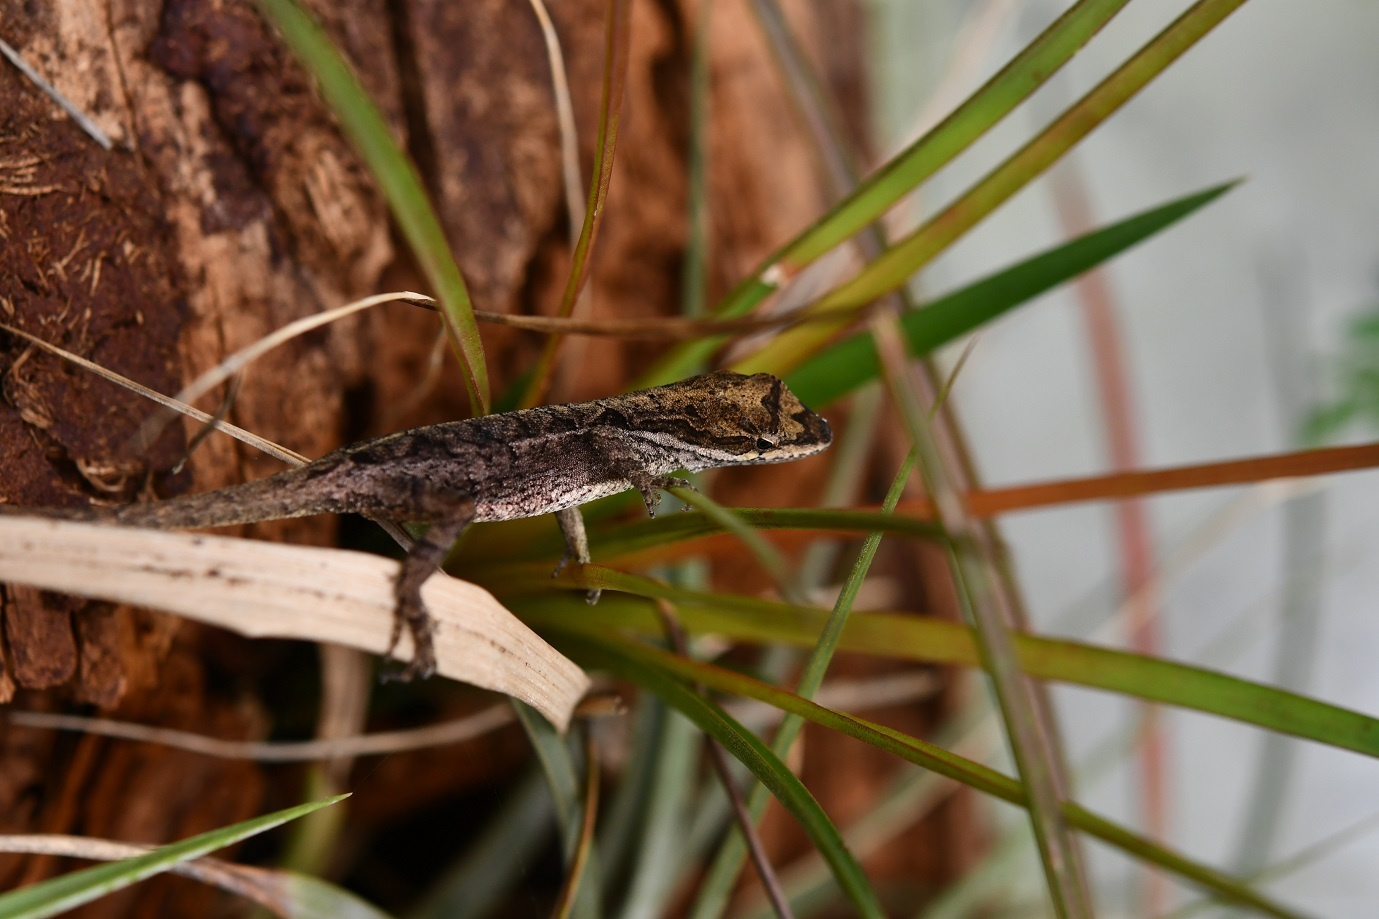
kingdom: Animalia
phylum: Chordata
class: Squamata
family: Dactyloidae
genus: Anolis
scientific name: Anolis anisolepis
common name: Chiapas ornate anole
